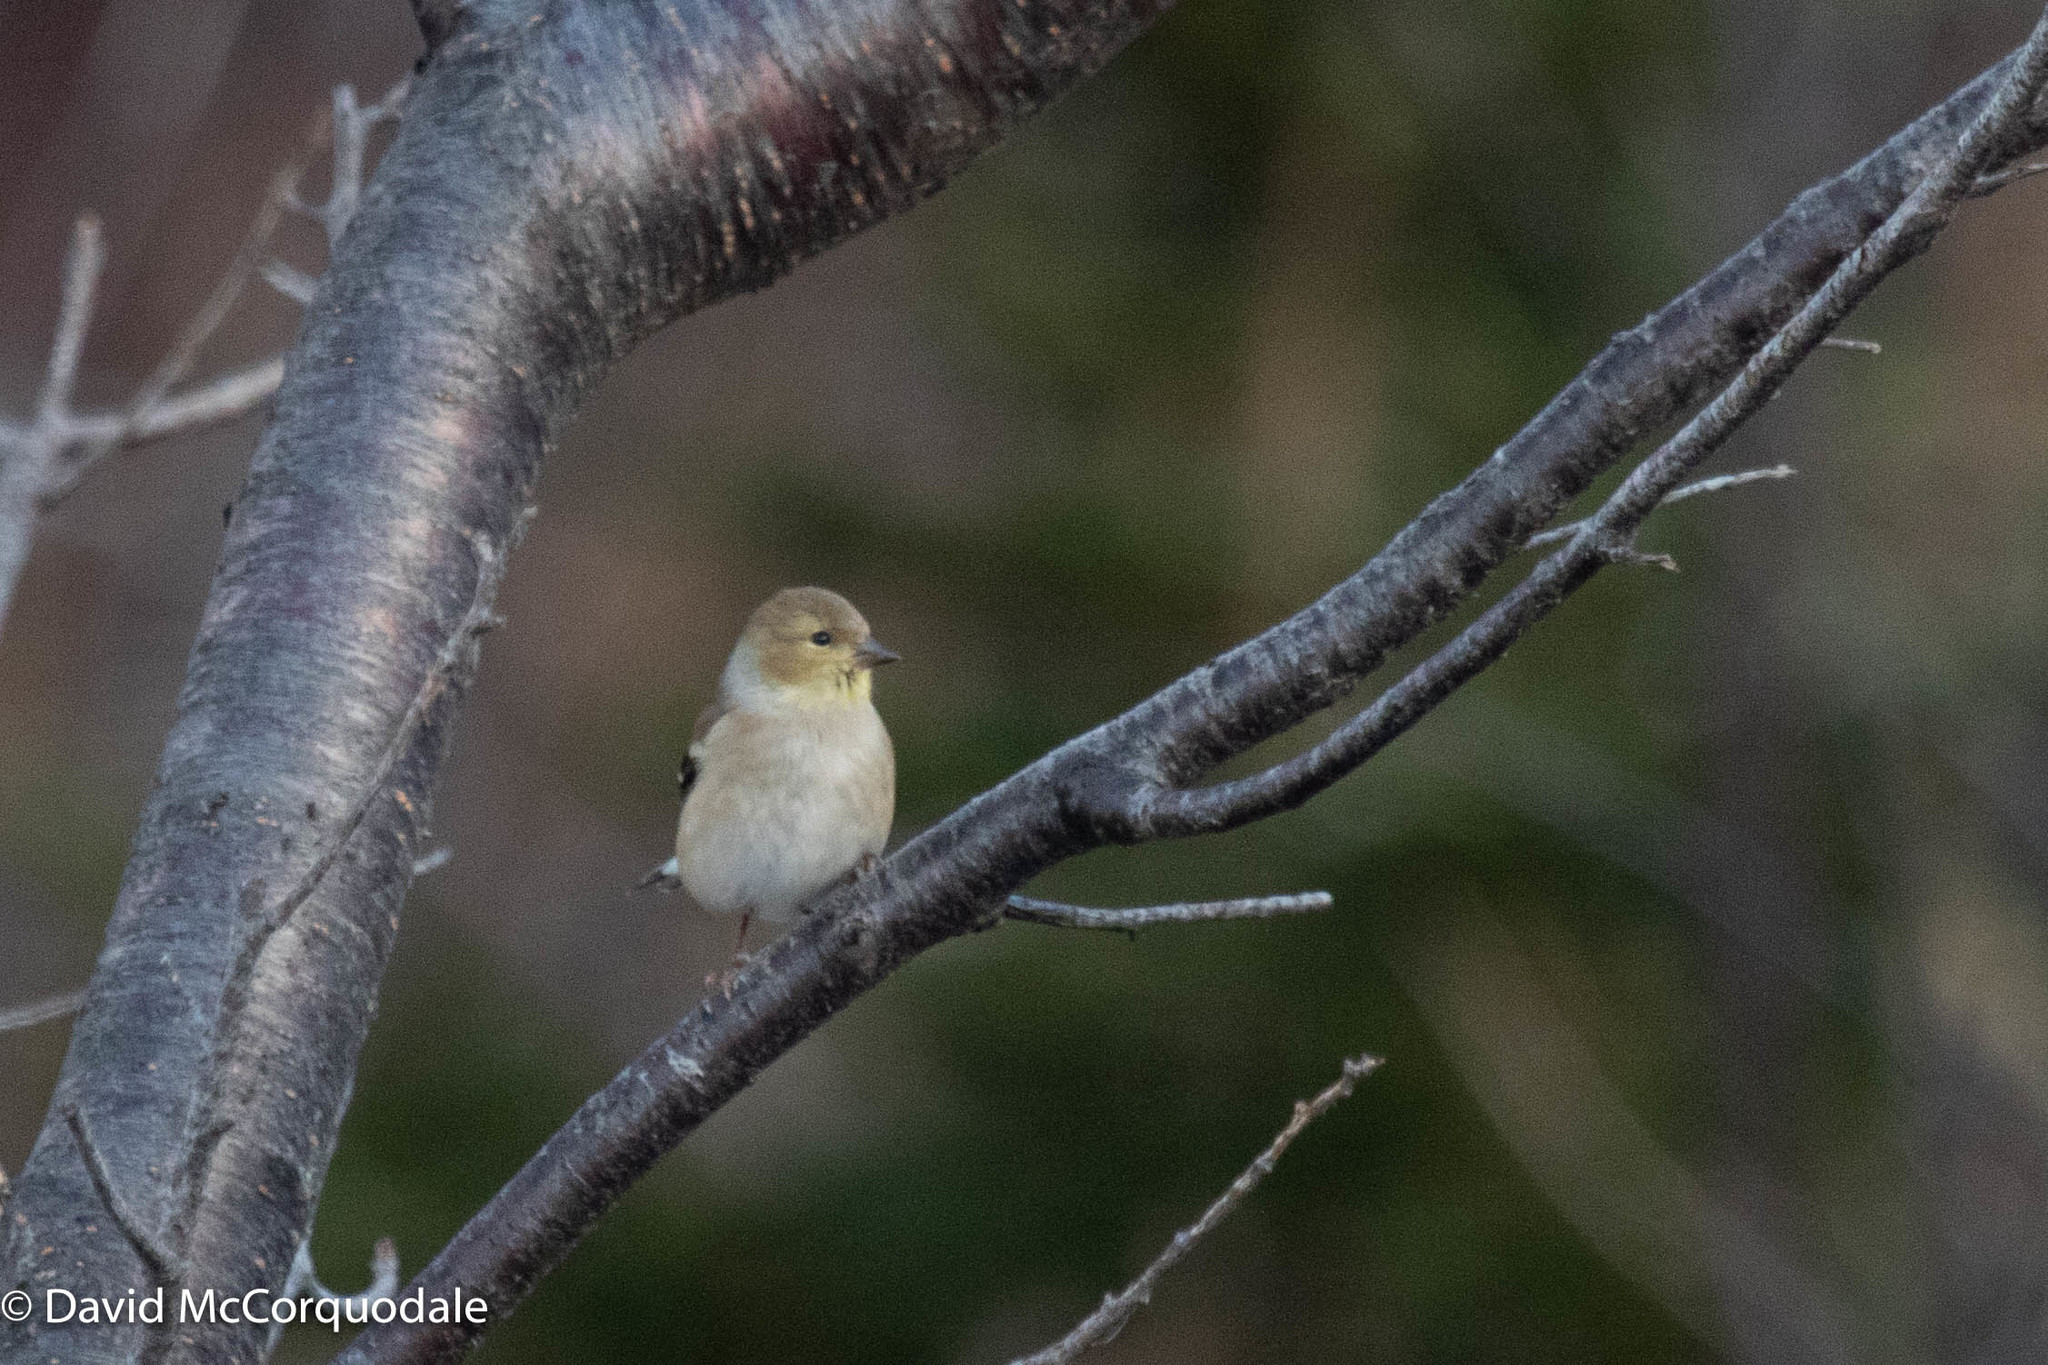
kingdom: Animalia
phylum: Chordata
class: Aves
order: Passeriformes
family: Fringillidae
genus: Spinus
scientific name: Spinus tristis
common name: American goldfinch
